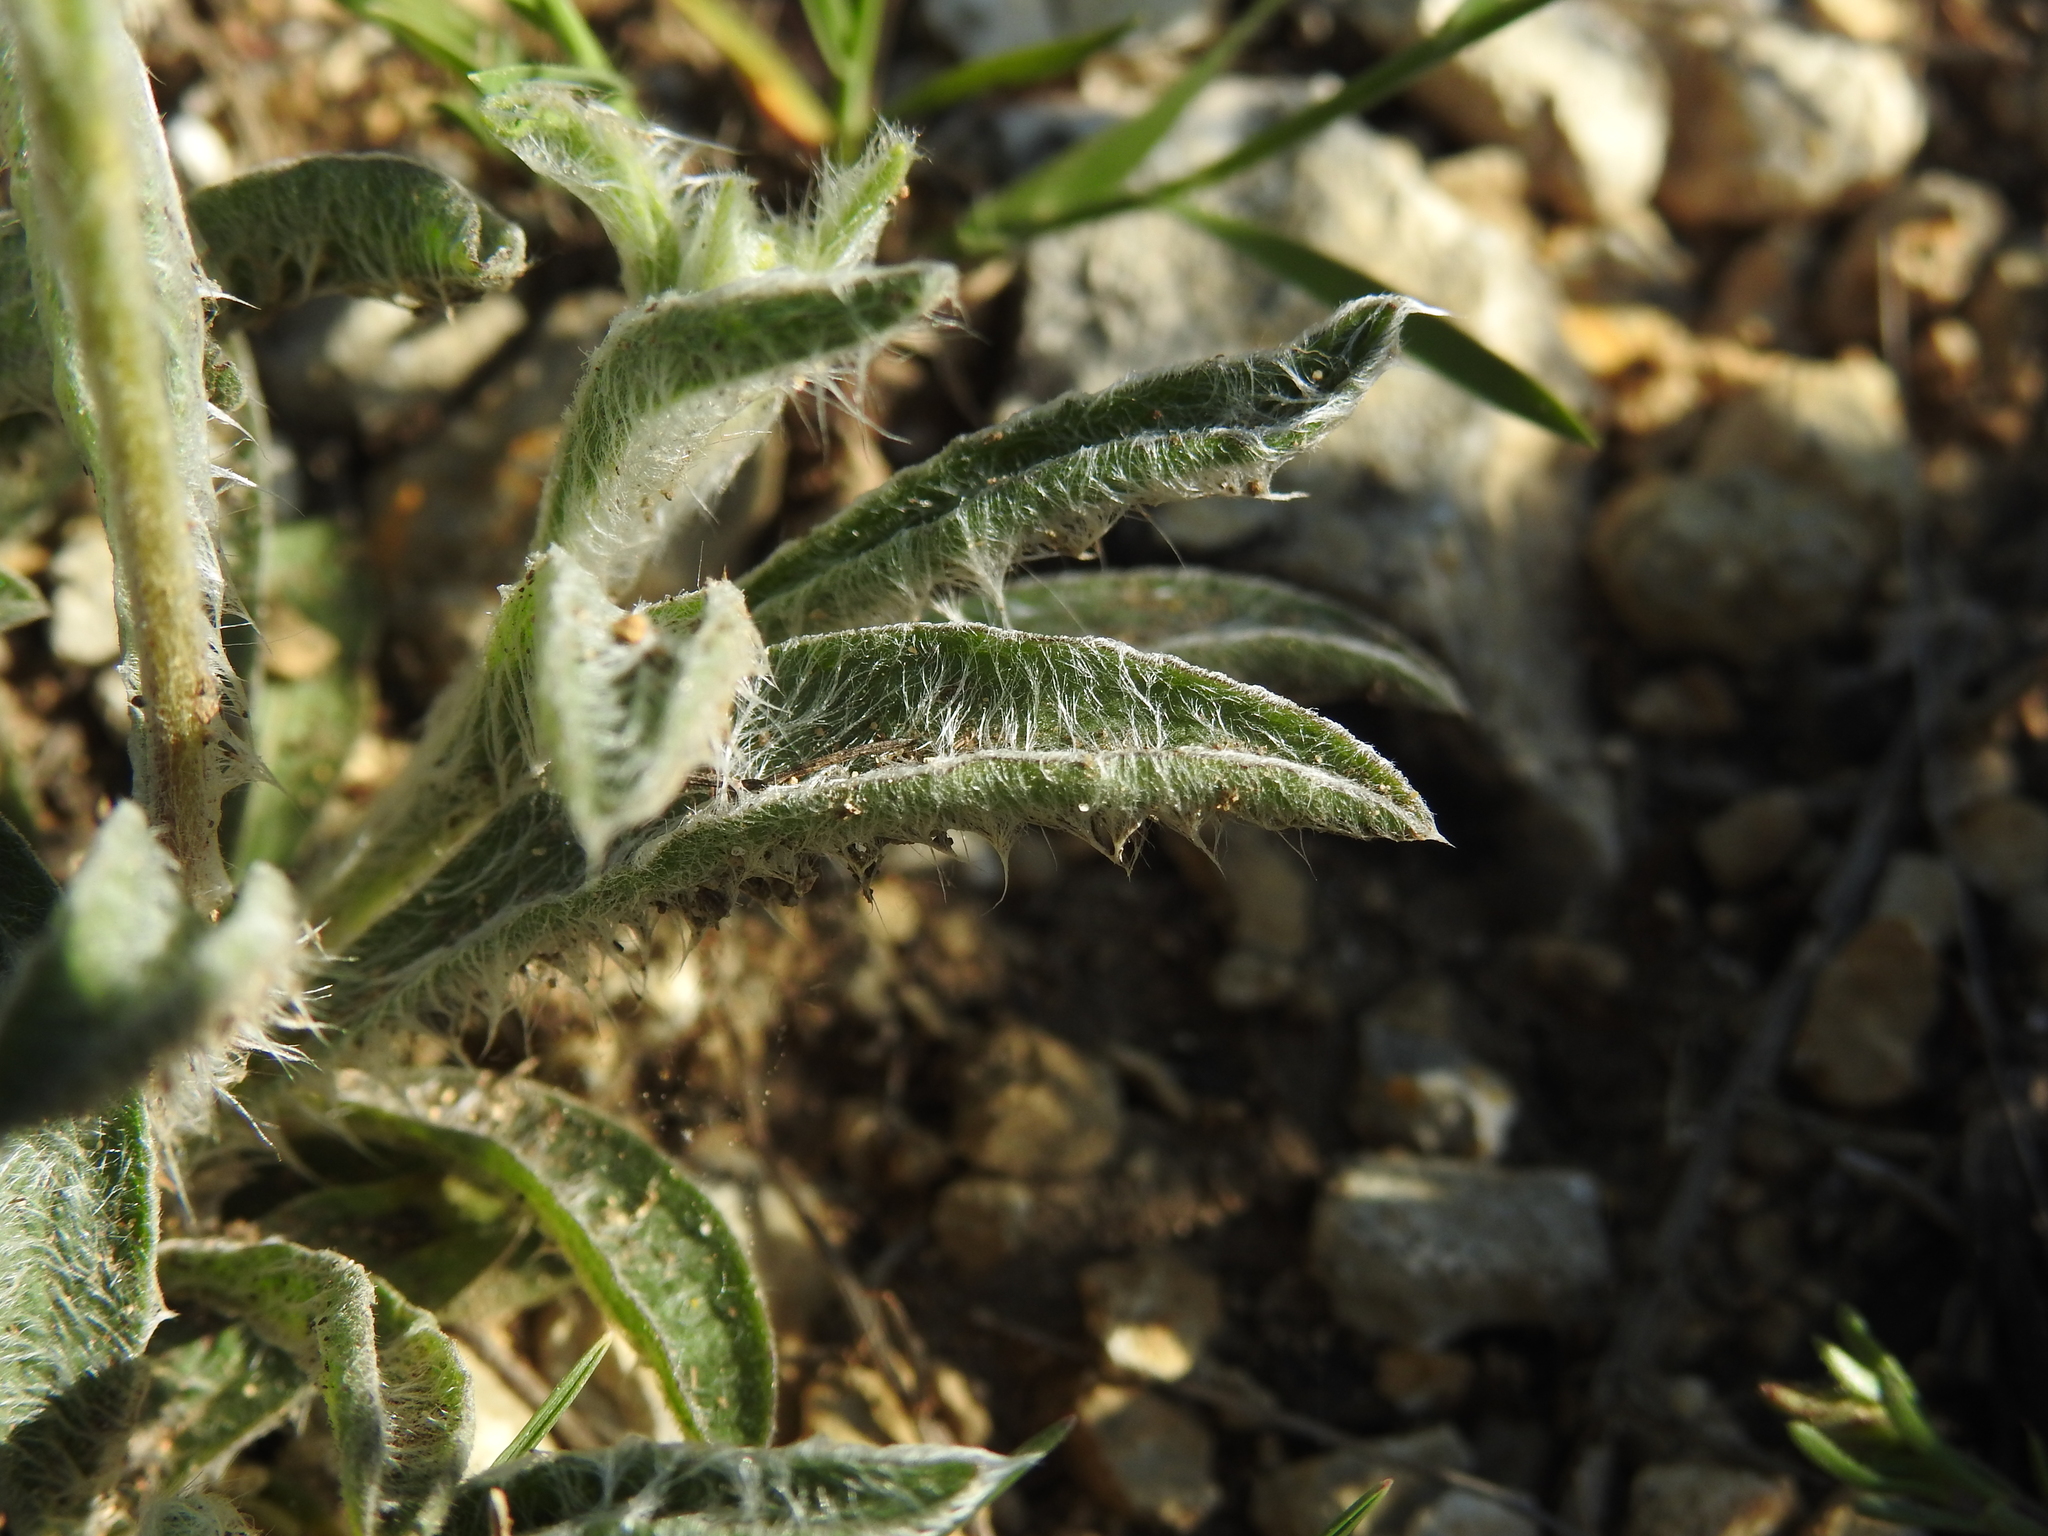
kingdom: Plantae
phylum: Tracheophyta
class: Magnoliopsida
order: Asterales
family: Asteraceae
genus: Pentanema
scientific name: Pentanema montanum
